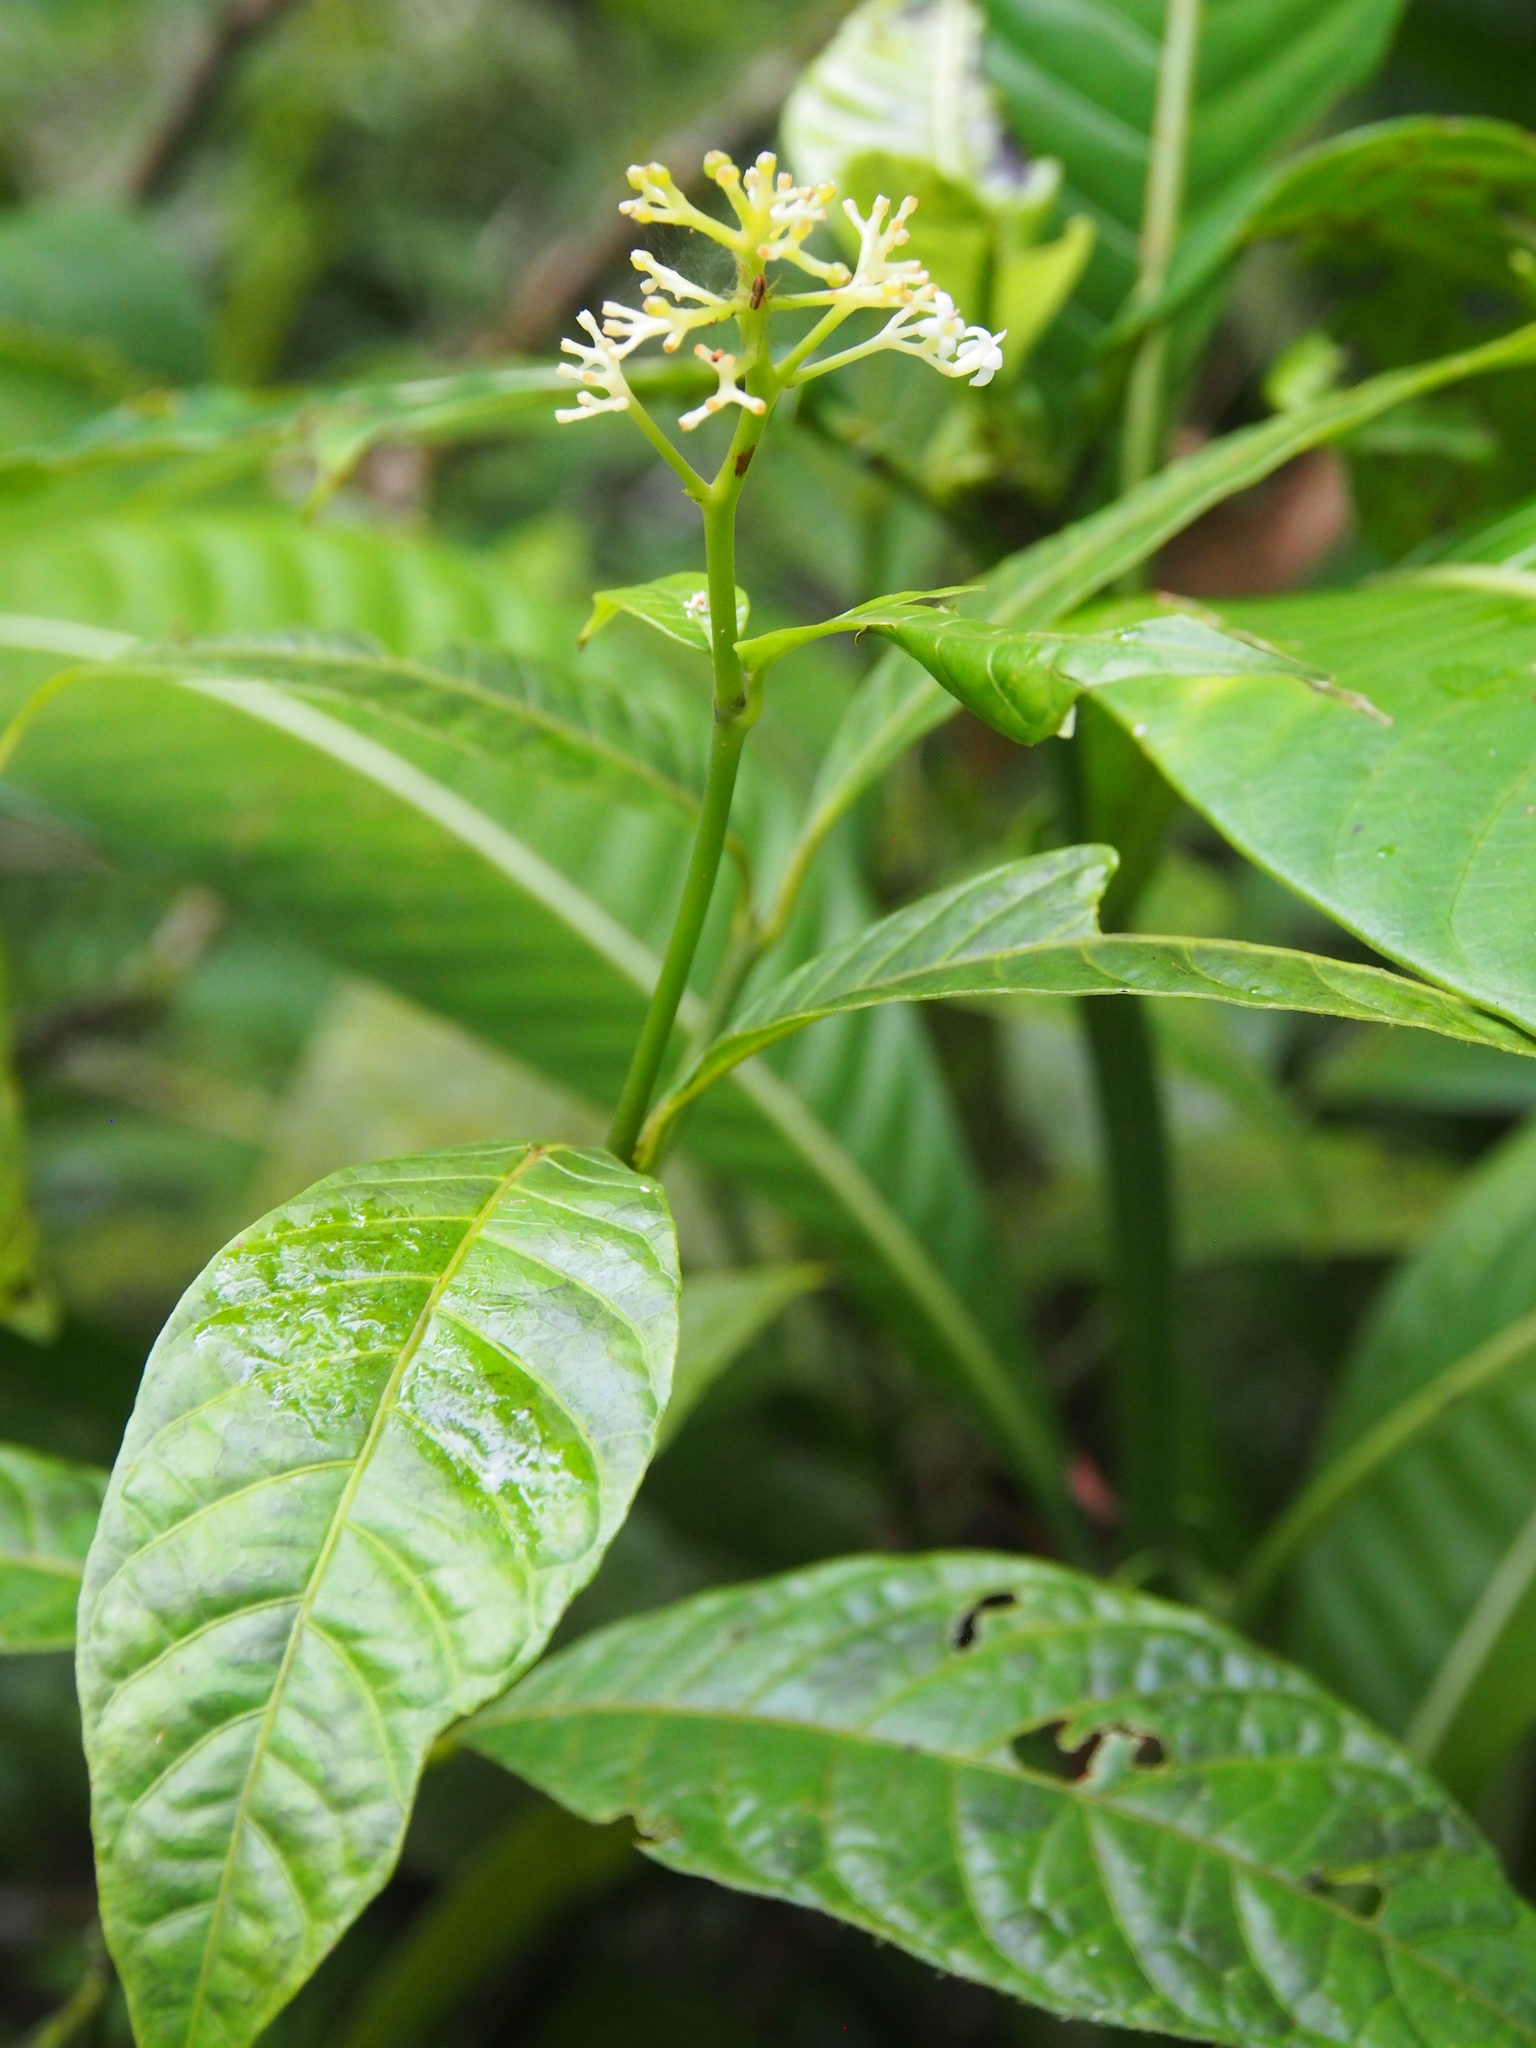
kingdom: Plantae
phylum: Tracheophyta
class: Magnoliopsida
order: Gentianales
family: Rubiaceae
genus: Palicourea
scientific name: Palicourea acuminata
